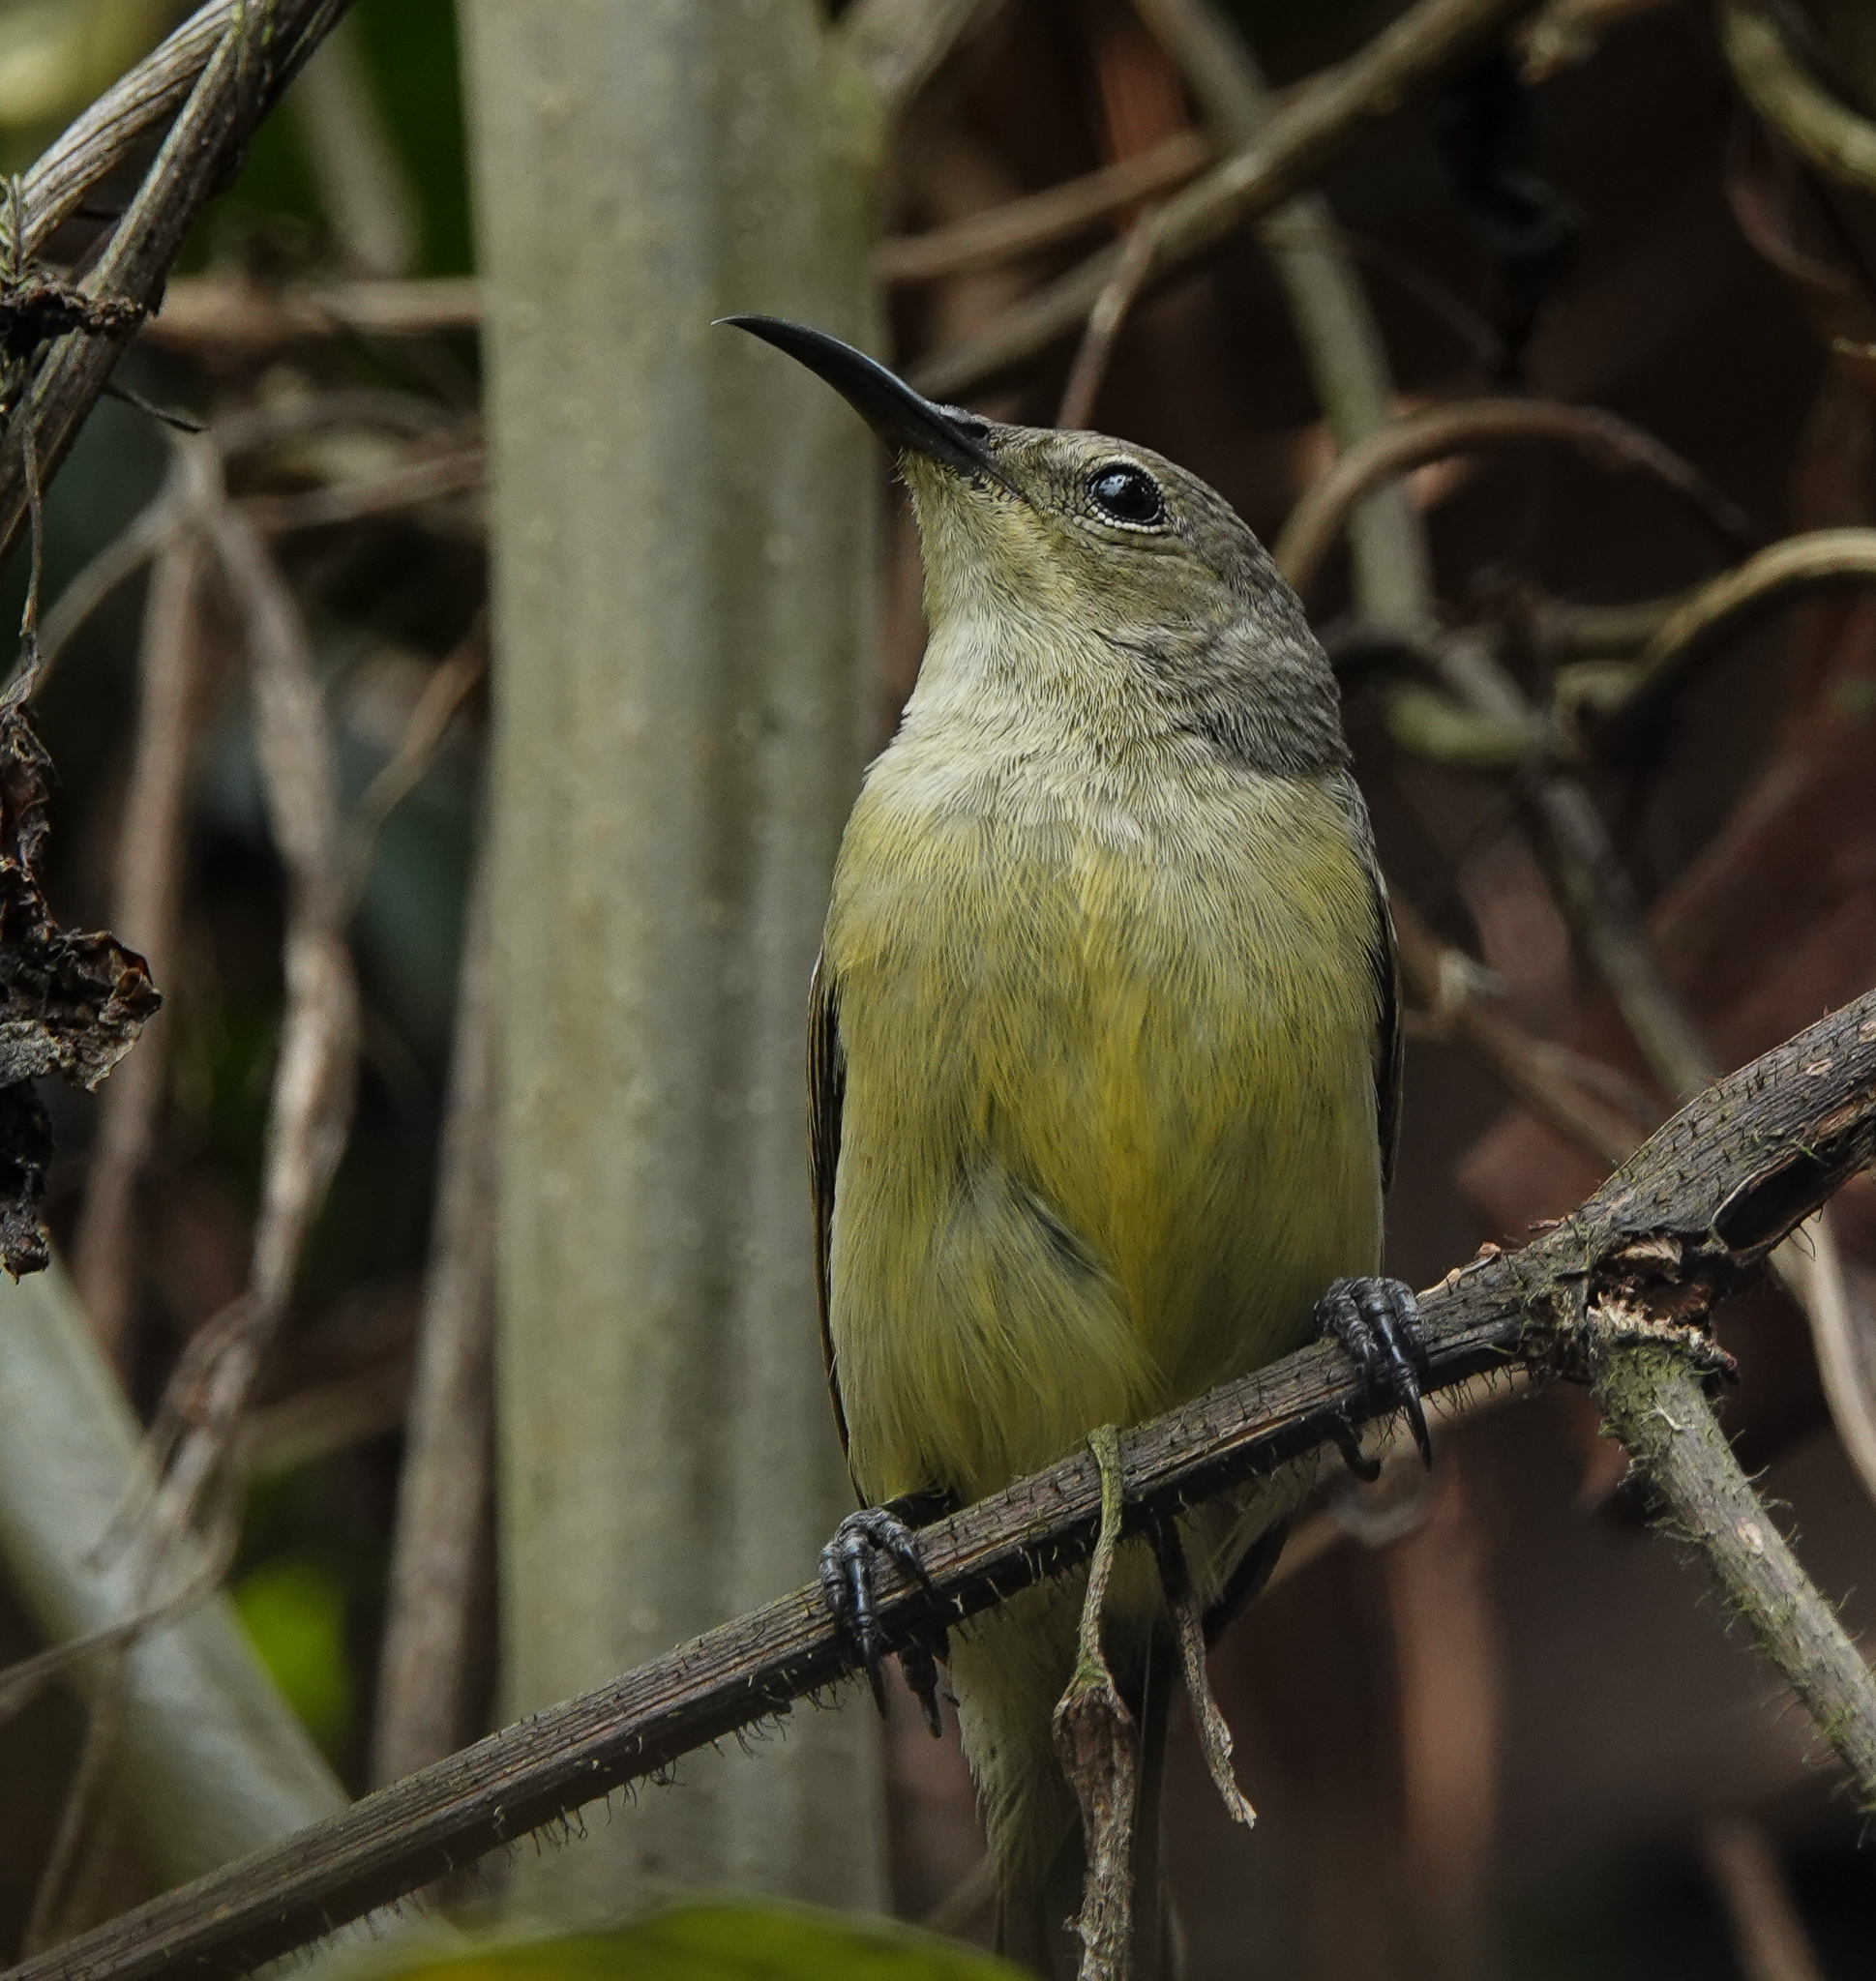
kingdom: Animalia
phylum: Chordata
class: Aves
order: Passeriformes
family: Nectariniidae
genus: Leptocoma
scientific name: Leptocoma brasiliana
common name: Van hasselt's sunbird
